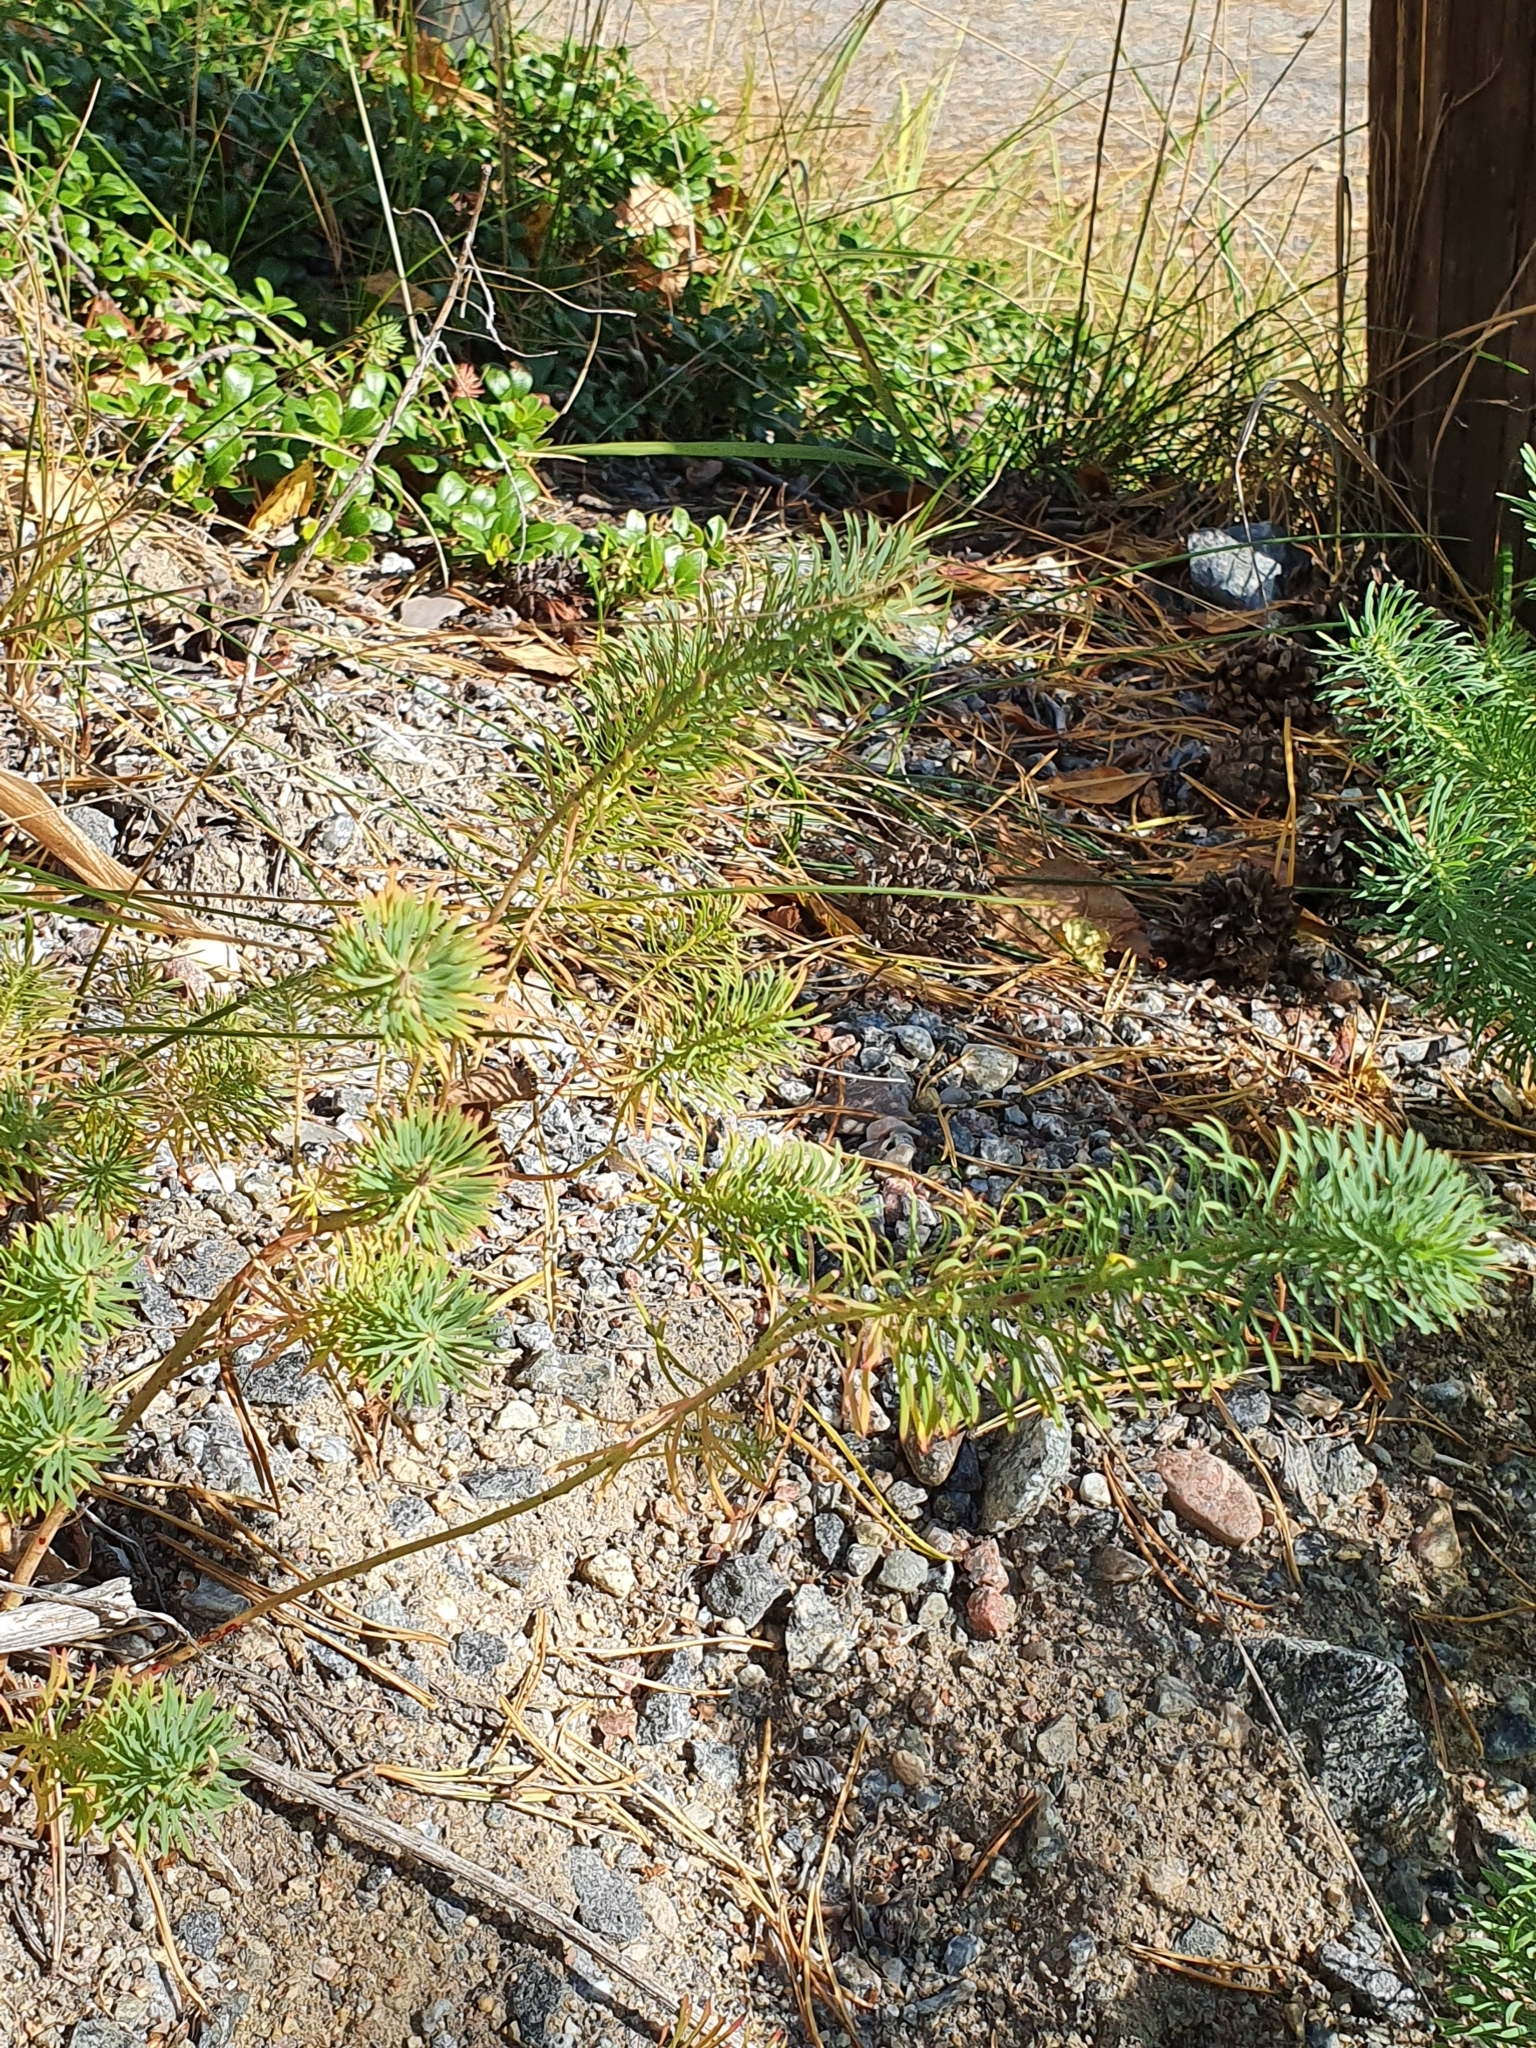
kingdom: Plantae
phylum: Tracheophyta
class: Magnoliopsida
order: Malpighiales
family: Euphorbiaceae
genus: Euphorbia
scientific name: Euphorbia cyparissias
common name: Cypress spurge
